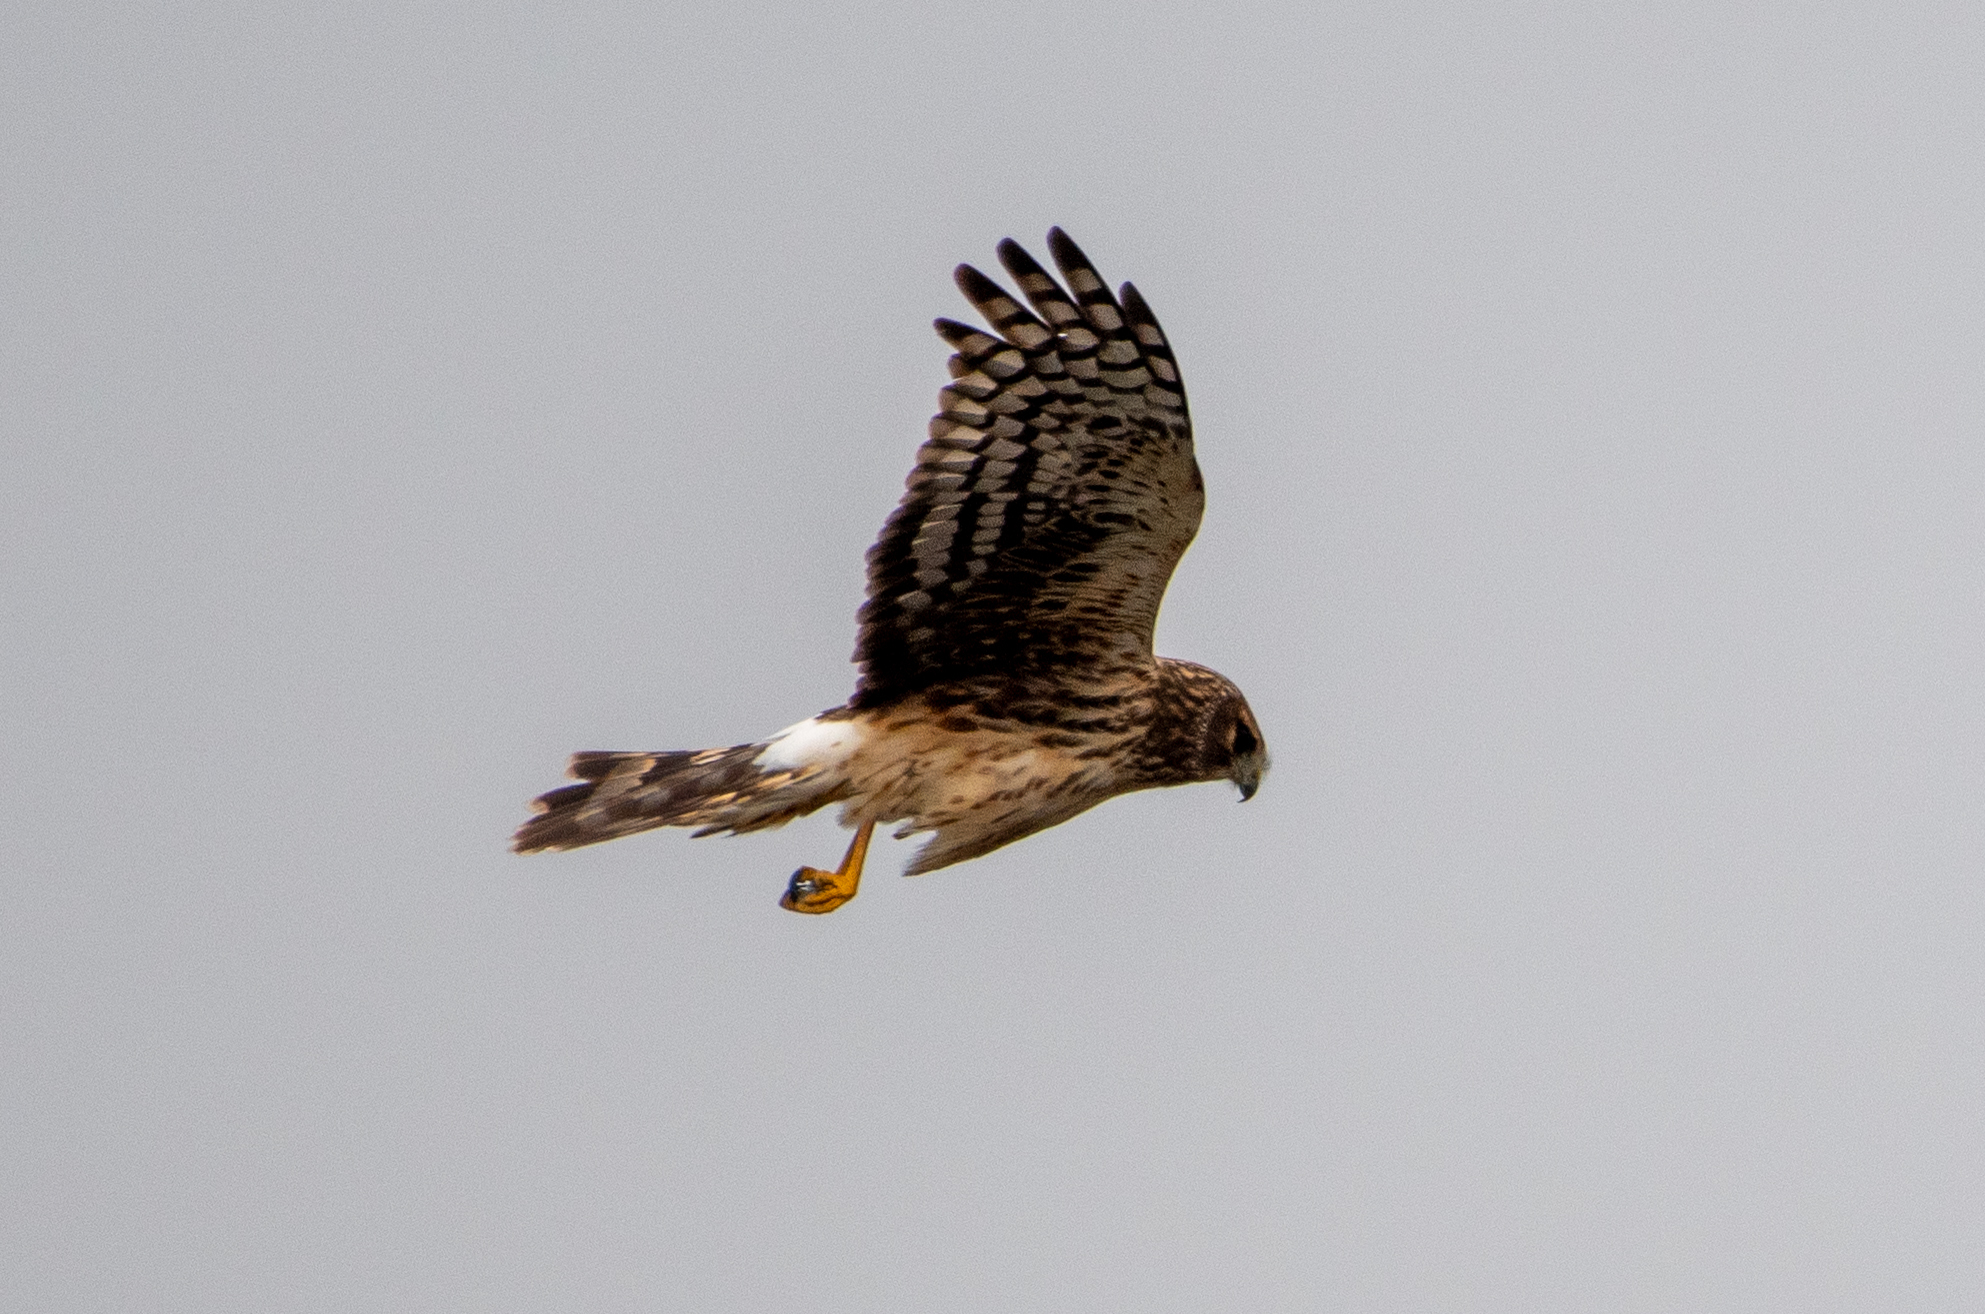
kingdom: Animalia
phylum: Chordata
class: Aves
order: Accipitriformes
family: Accipitridae
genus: Circus
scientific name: Circus cyaneus
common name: Hen harrier
